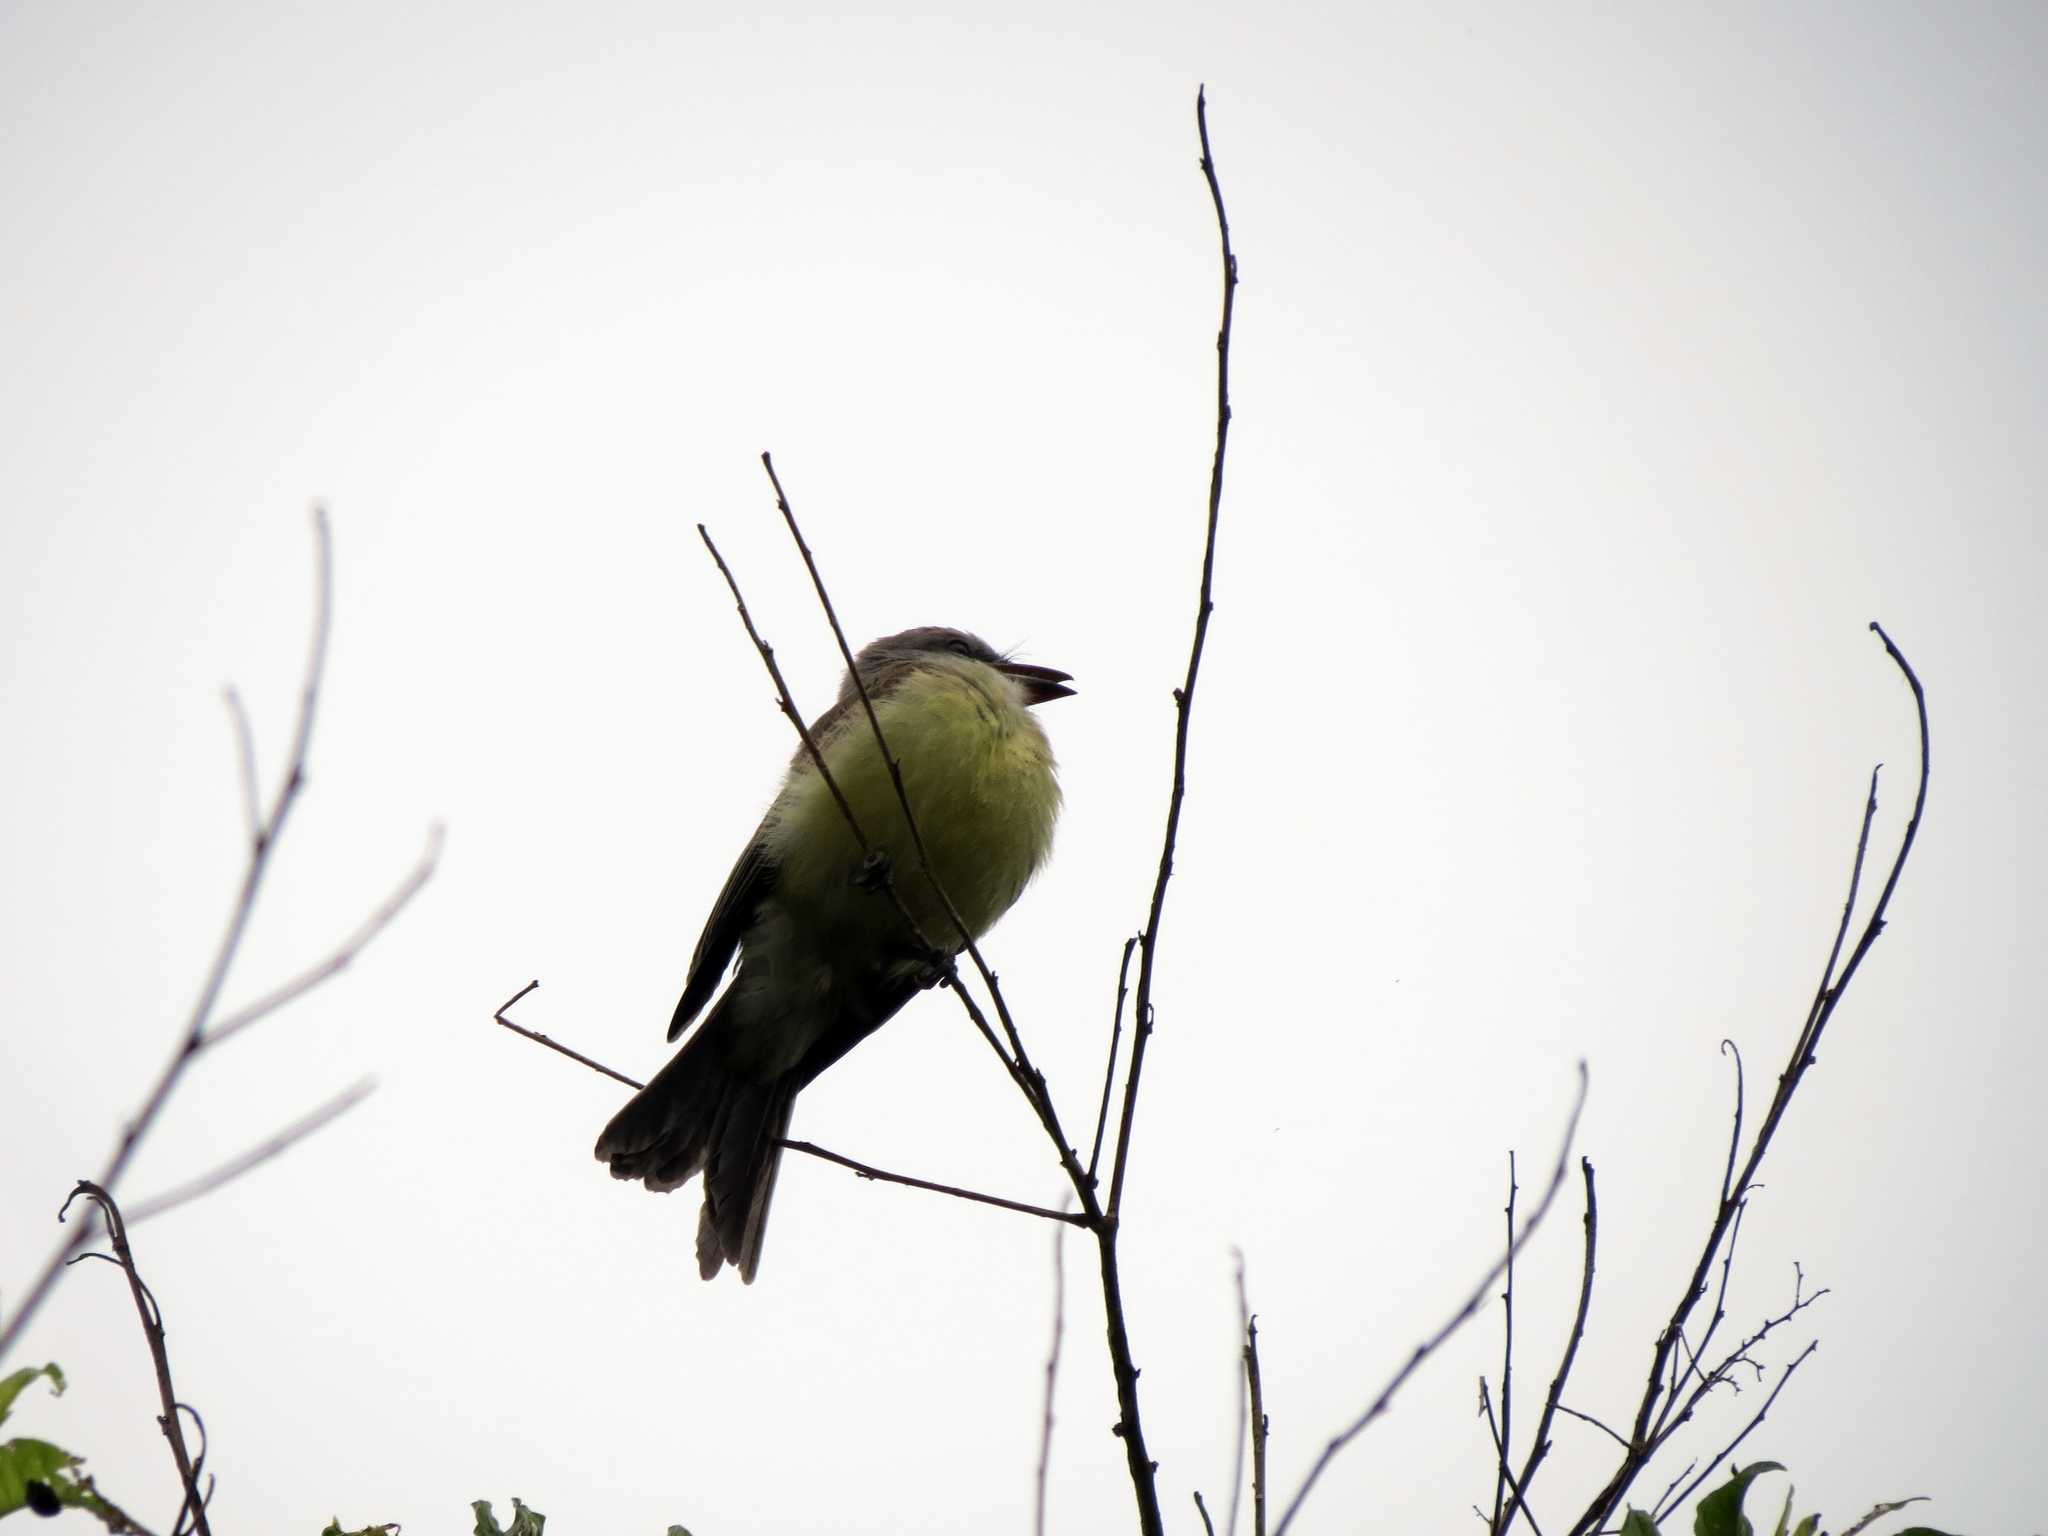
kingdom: Animalia
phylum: Chordata
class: Aves
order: Passeriformes
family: Tyrannidae
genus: Tyrannus
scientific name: Tyrannus melancholicus
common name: Tropical kingbird
